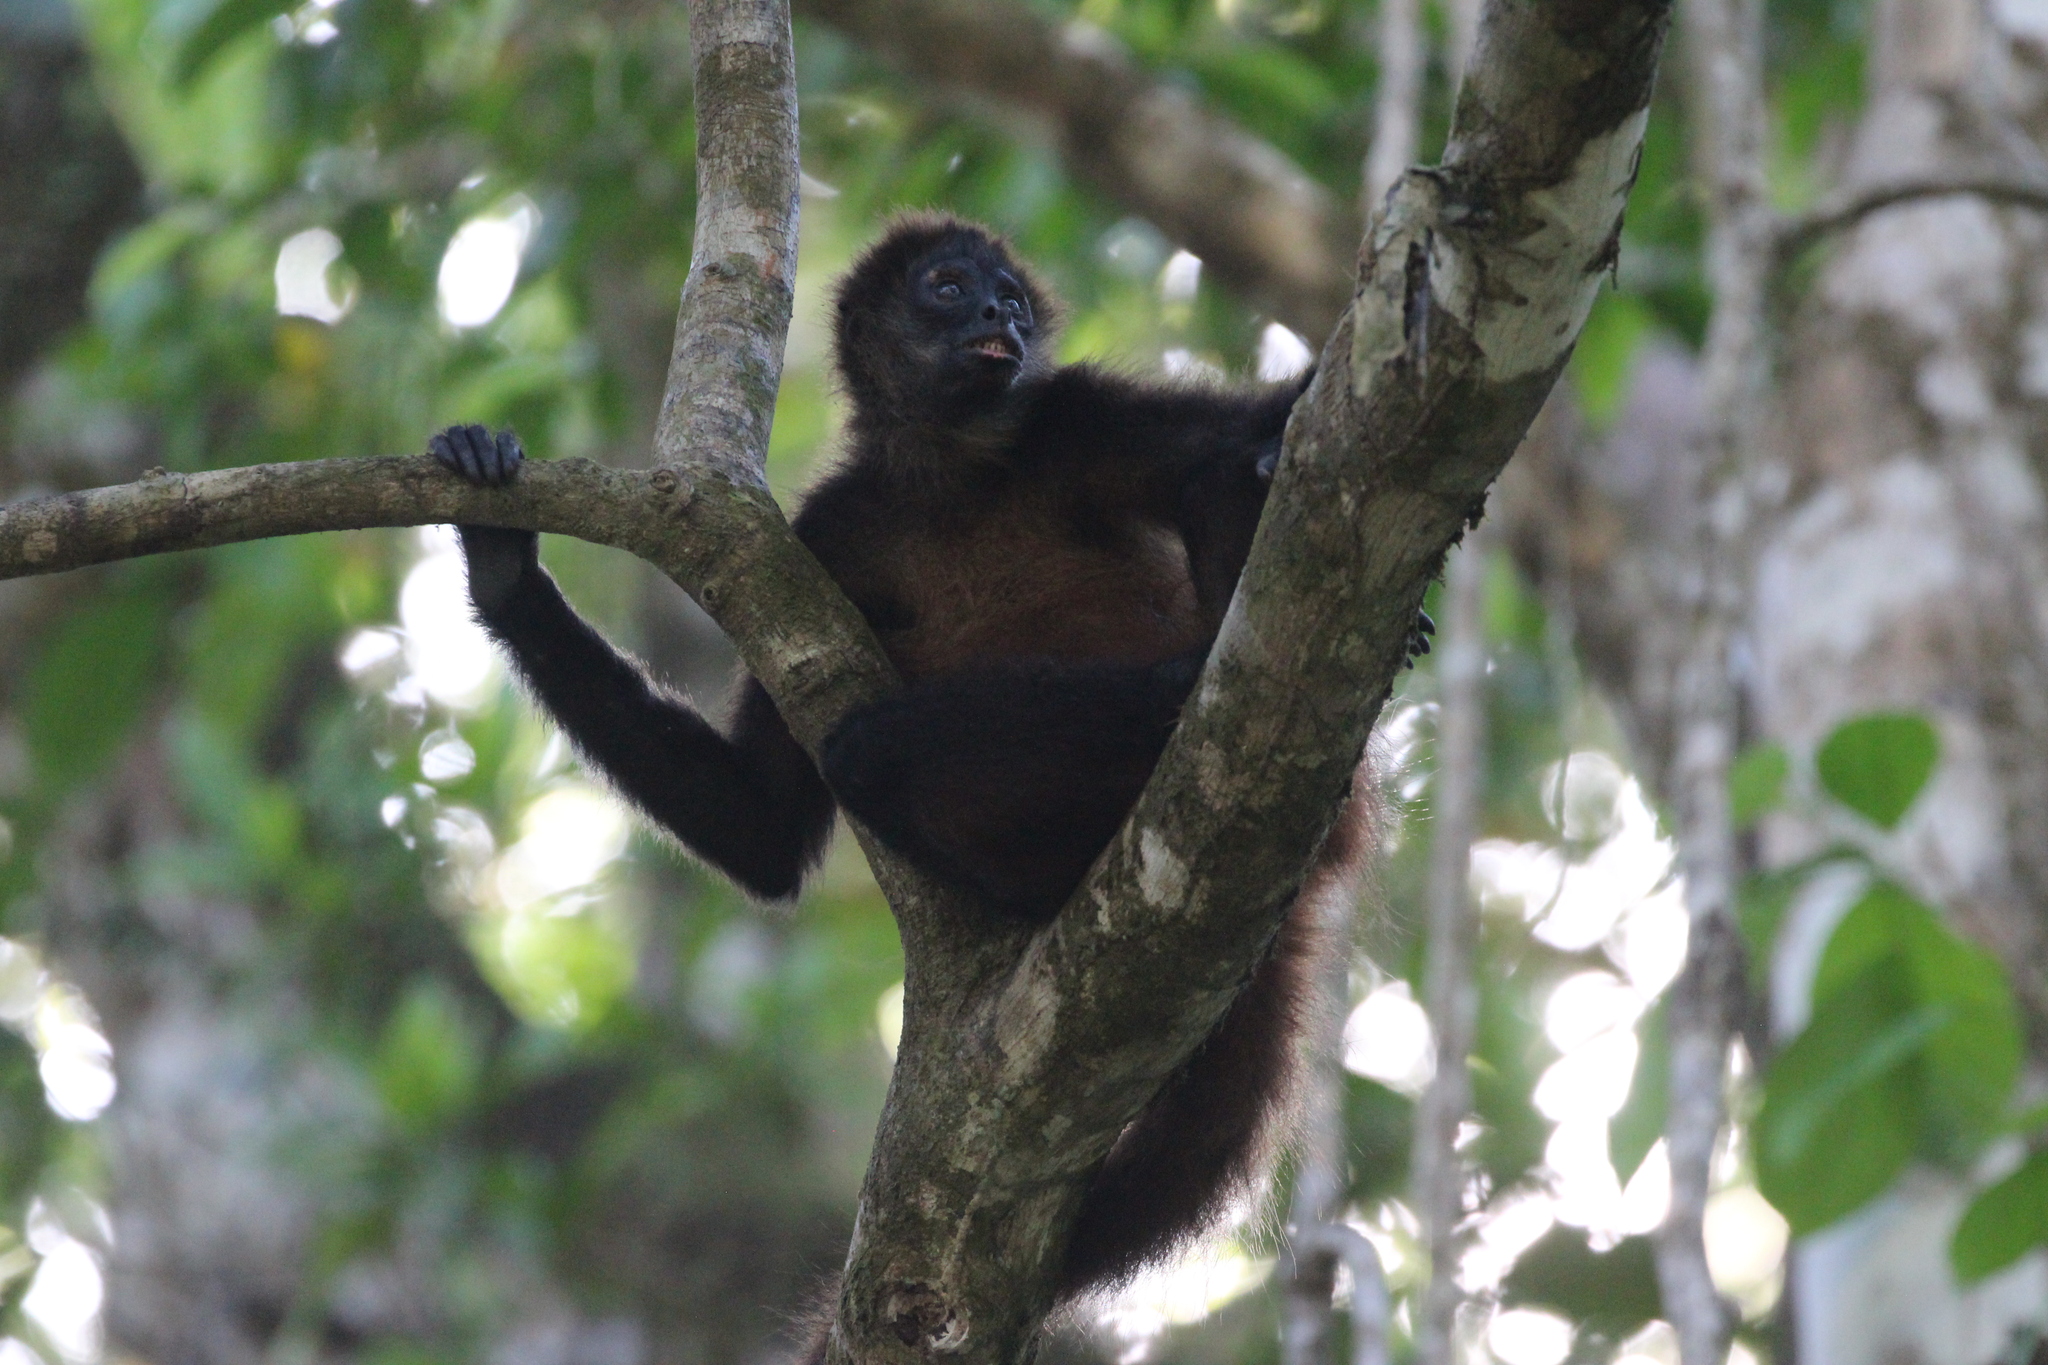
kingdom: Animalia
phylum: Chordata
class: Mammalia
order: Primates
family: Atelidae
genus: Ateles
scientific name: Ateles geoffroyi
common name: Black-handed spider monkey
